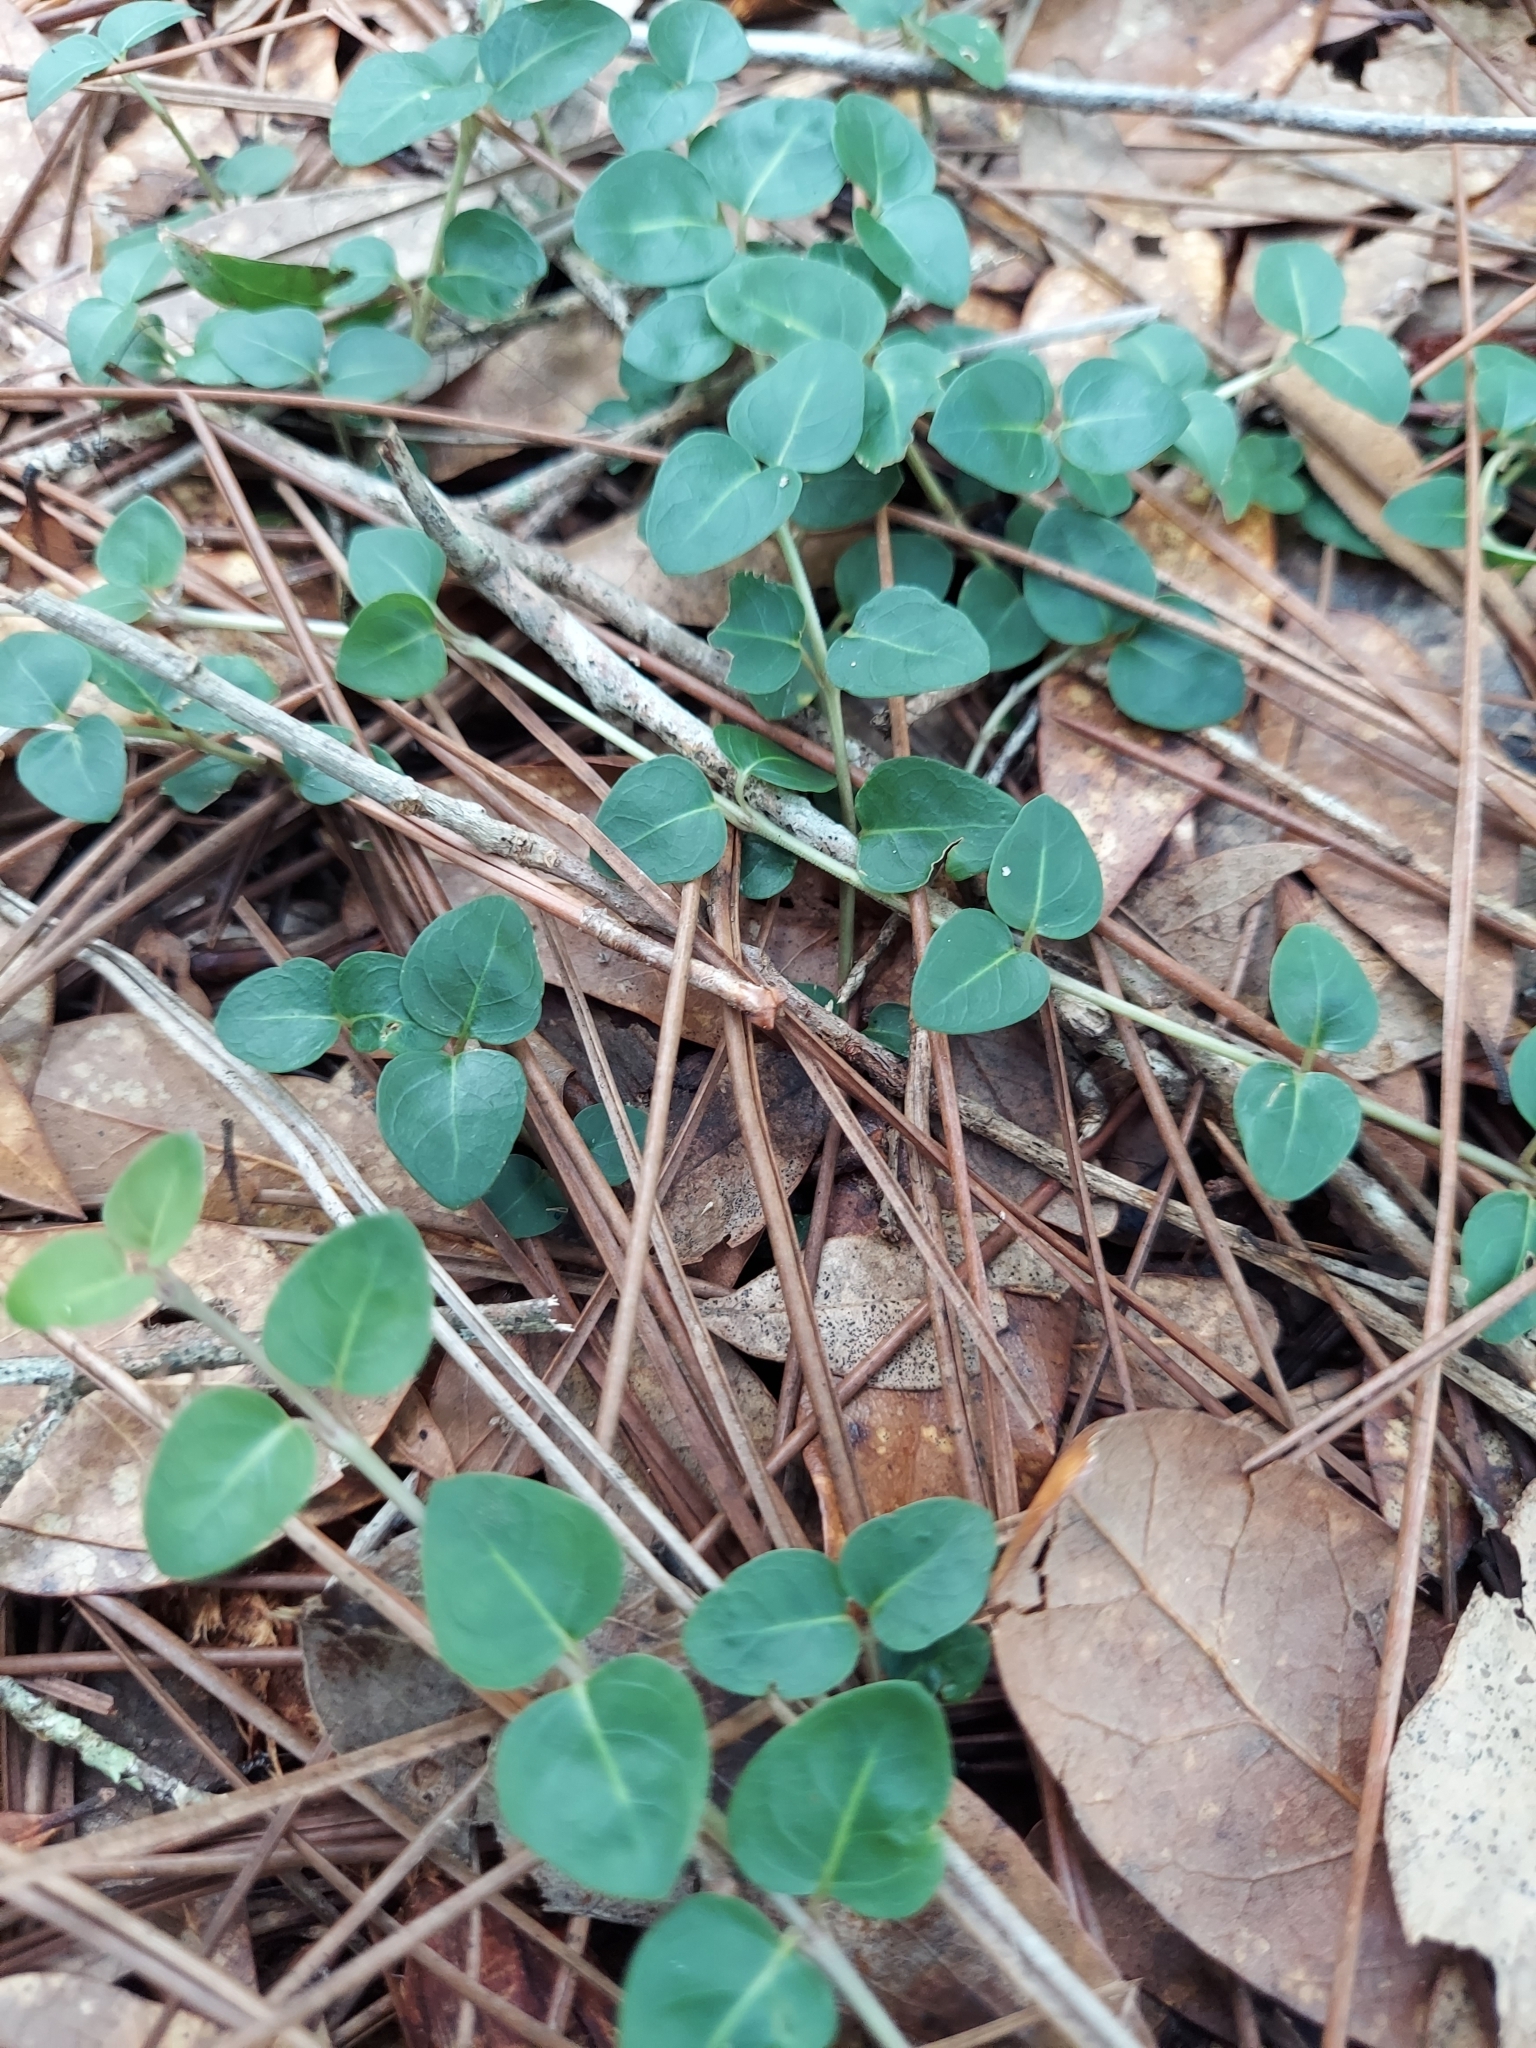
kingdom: Plantae
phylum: Tracheophyta
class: Magnoliopsida
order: Gentianales
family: Rubiaceae
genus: Mitchella
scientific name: Mitchella repens
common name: Partridge-berry
